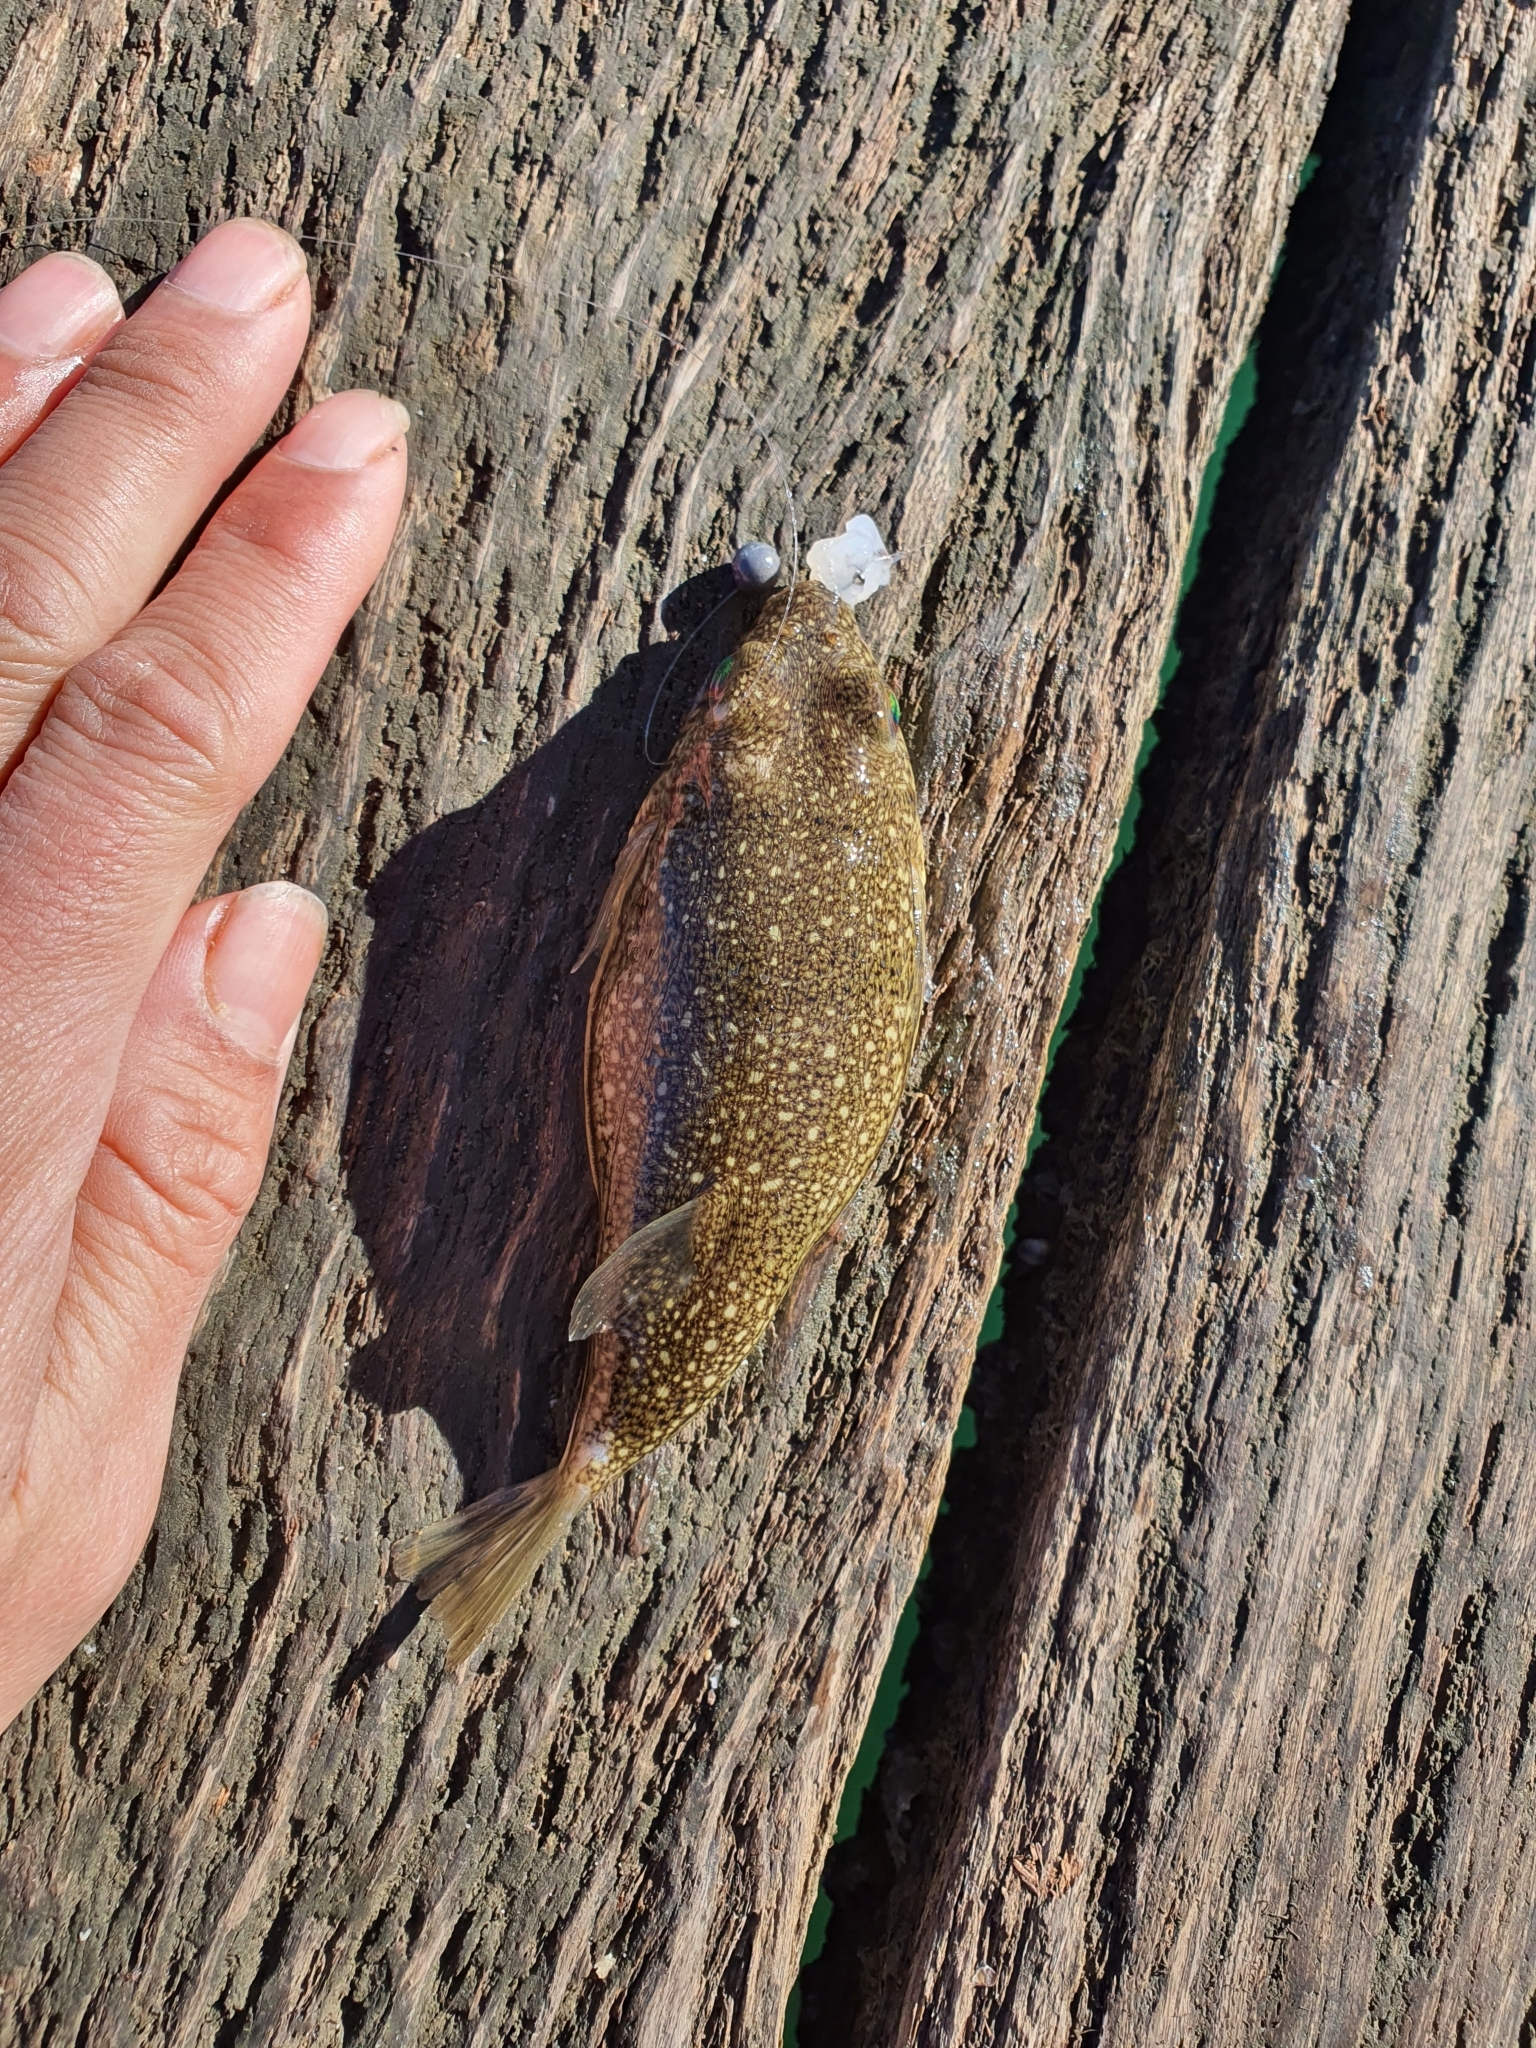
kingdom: Animalia
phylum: Chordata
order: Tetraodontiformes
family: Tetraodontidae
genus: Torquigener
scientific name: Torquigener pleurogramma
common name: Banded toadfish
